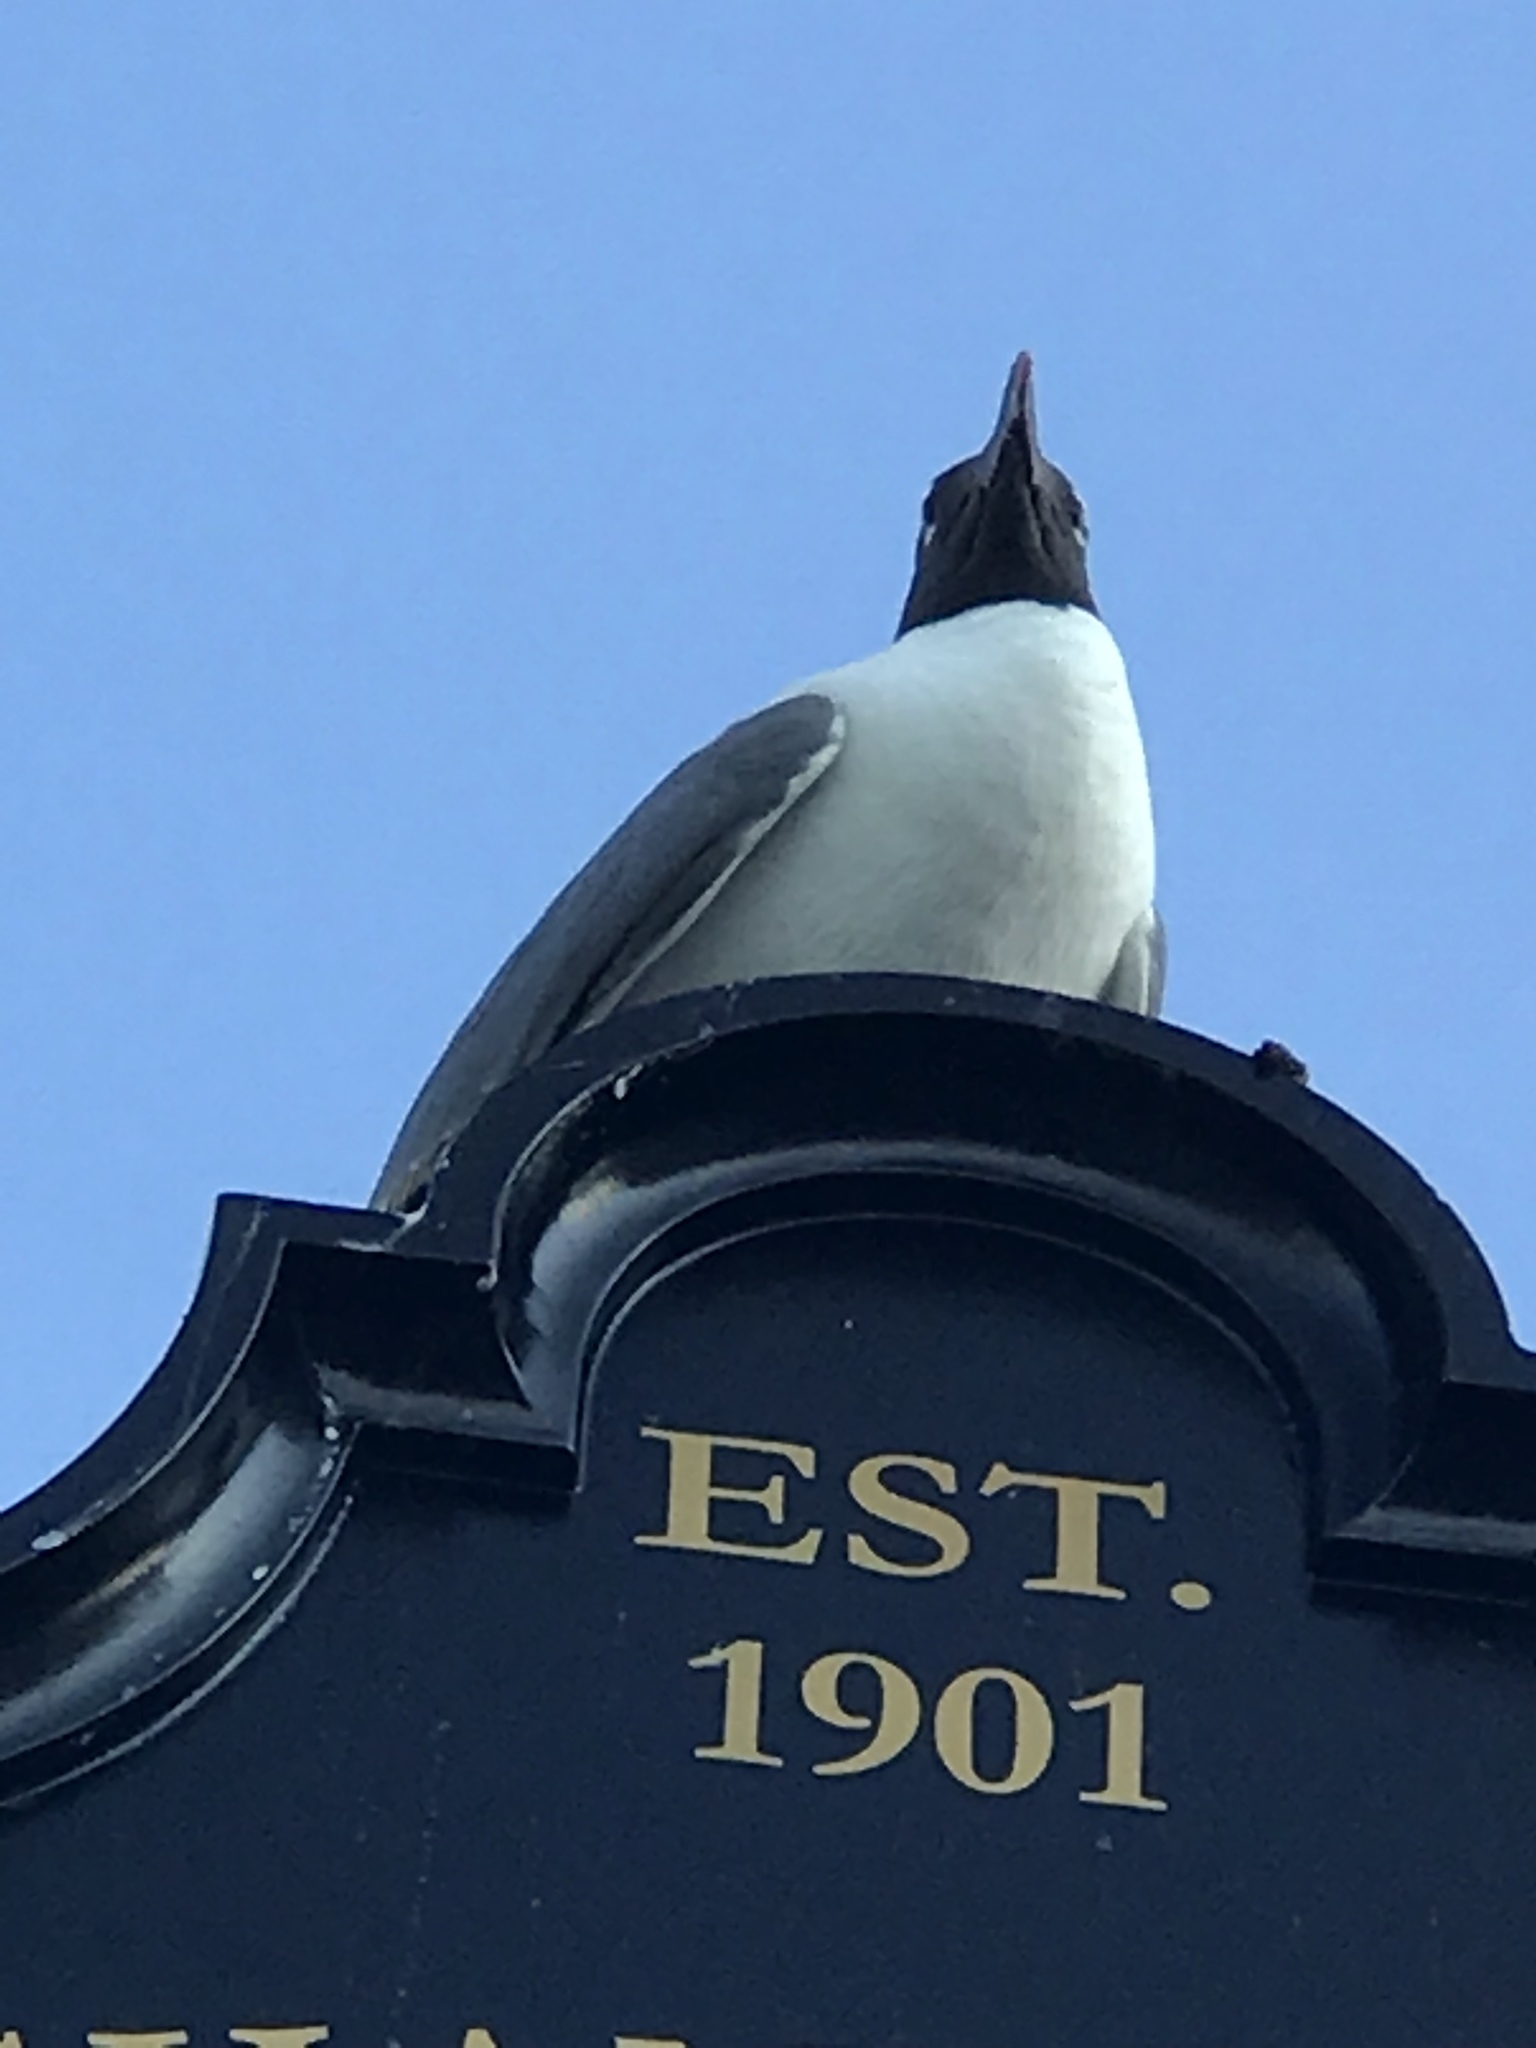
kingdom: Animalia
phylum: Chordata
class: Aves
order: Charadriiformes
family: Laridae
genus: Leucophaeus
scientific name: Leucophaeus atricilla
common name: Laughing gull
